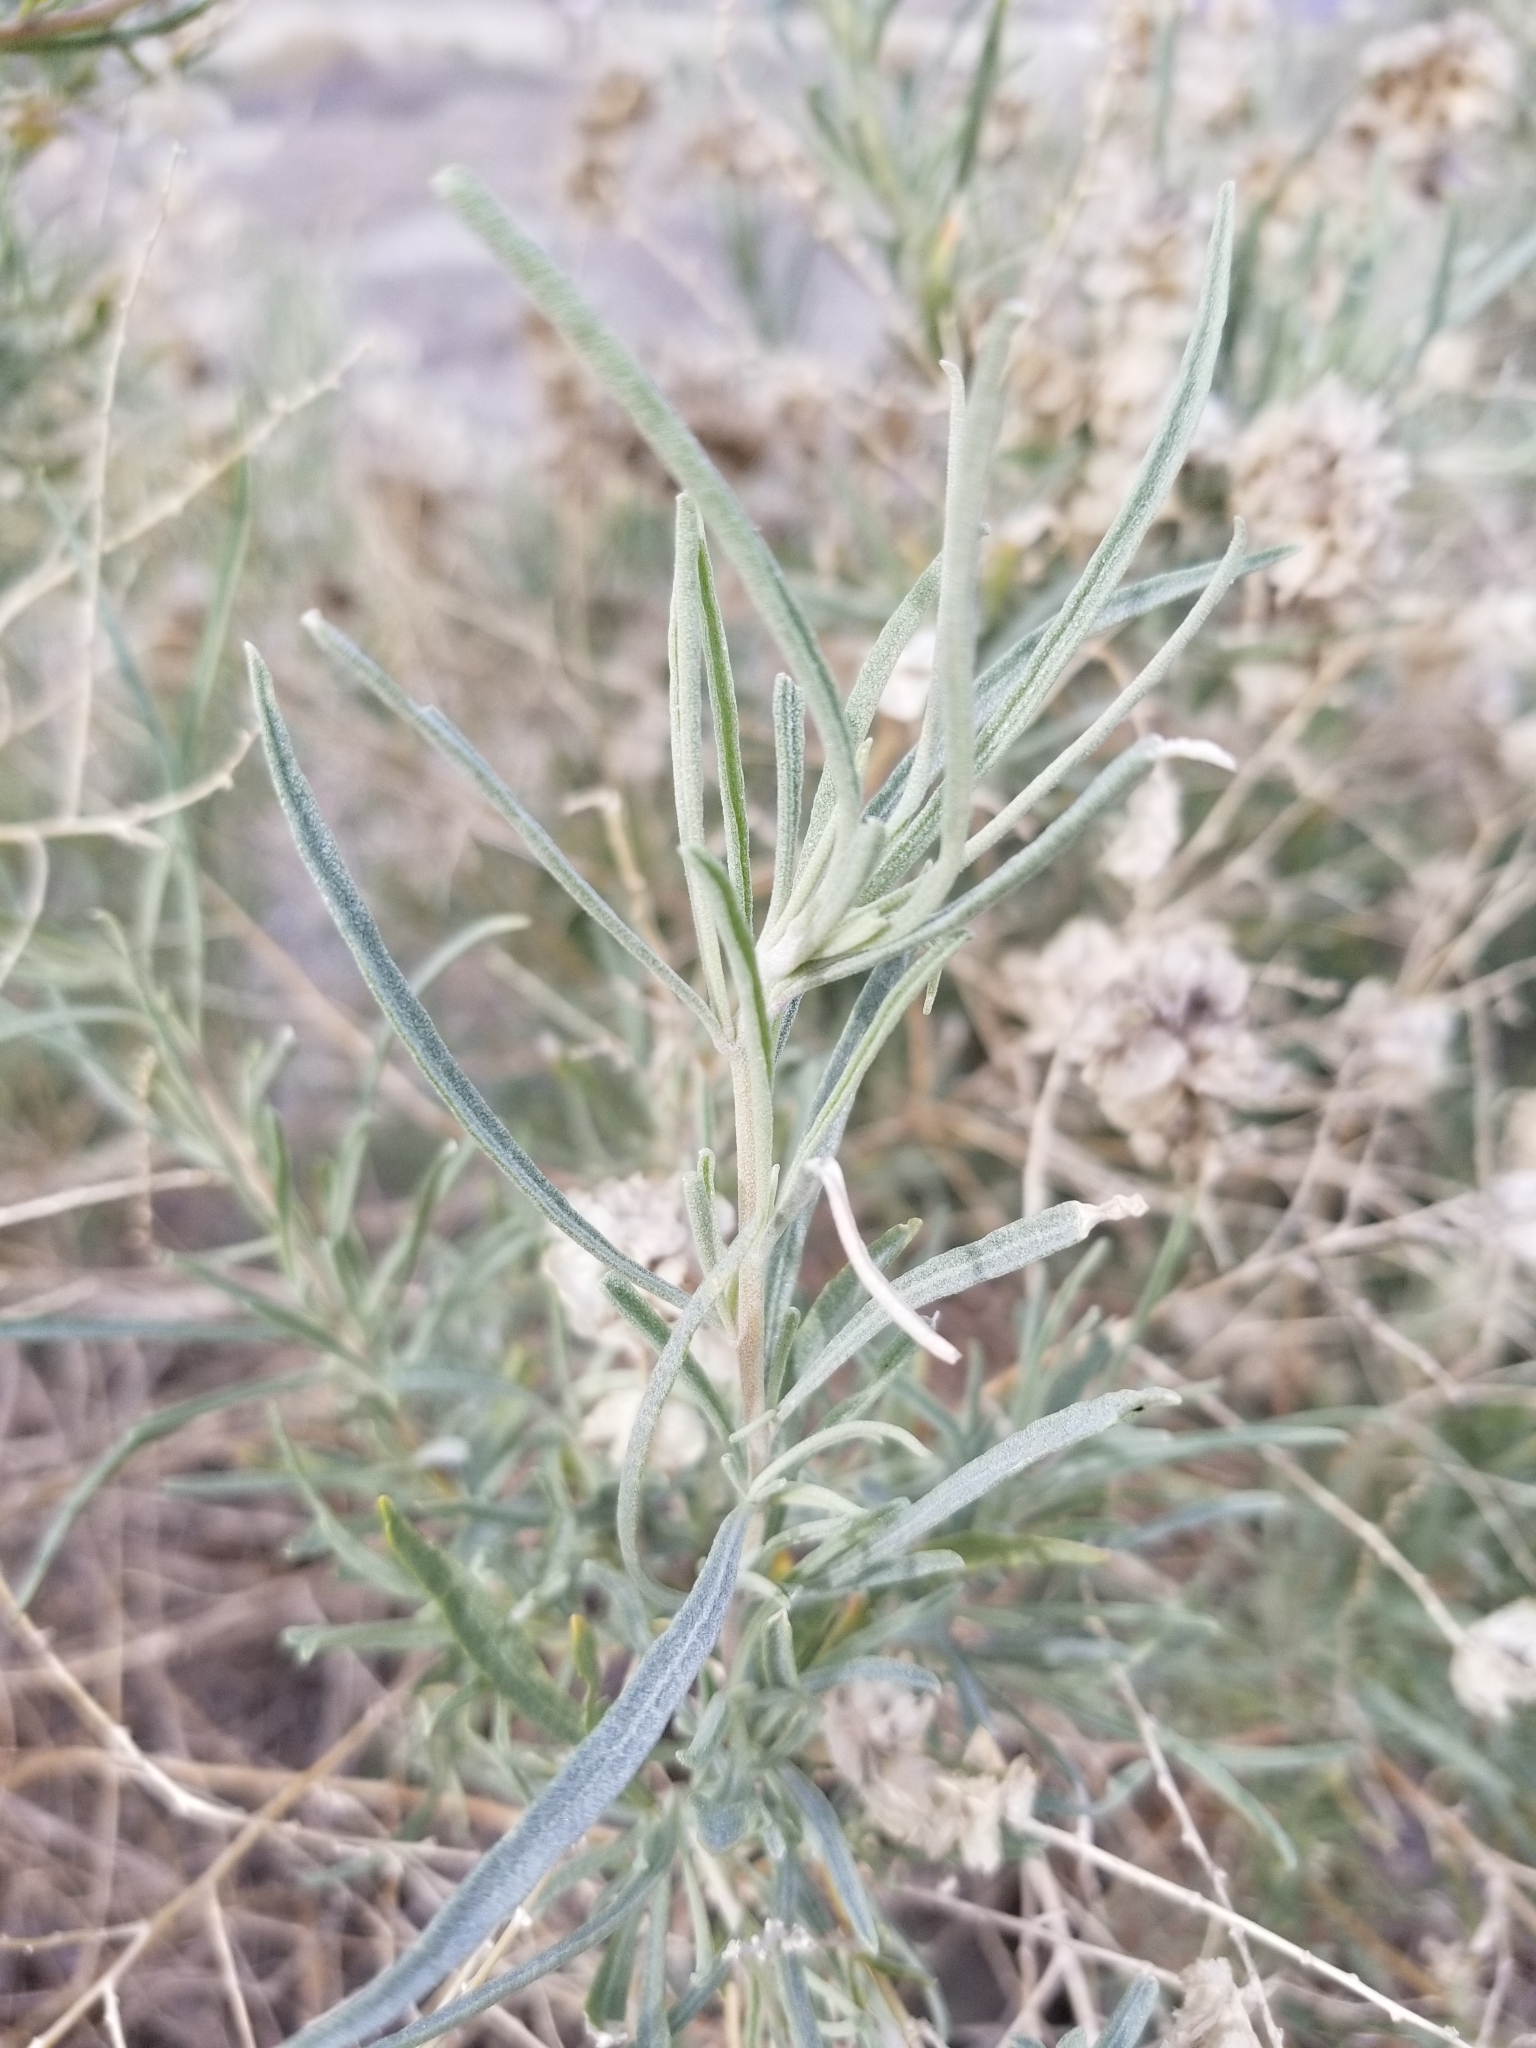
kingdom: Plantae
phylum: Tracheophyta
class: Magnoliopsida
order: Caryophyllales
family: Amaranthaceae
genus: Atriplex
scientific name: Atriplex canescens
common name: Four-wing saltbush
